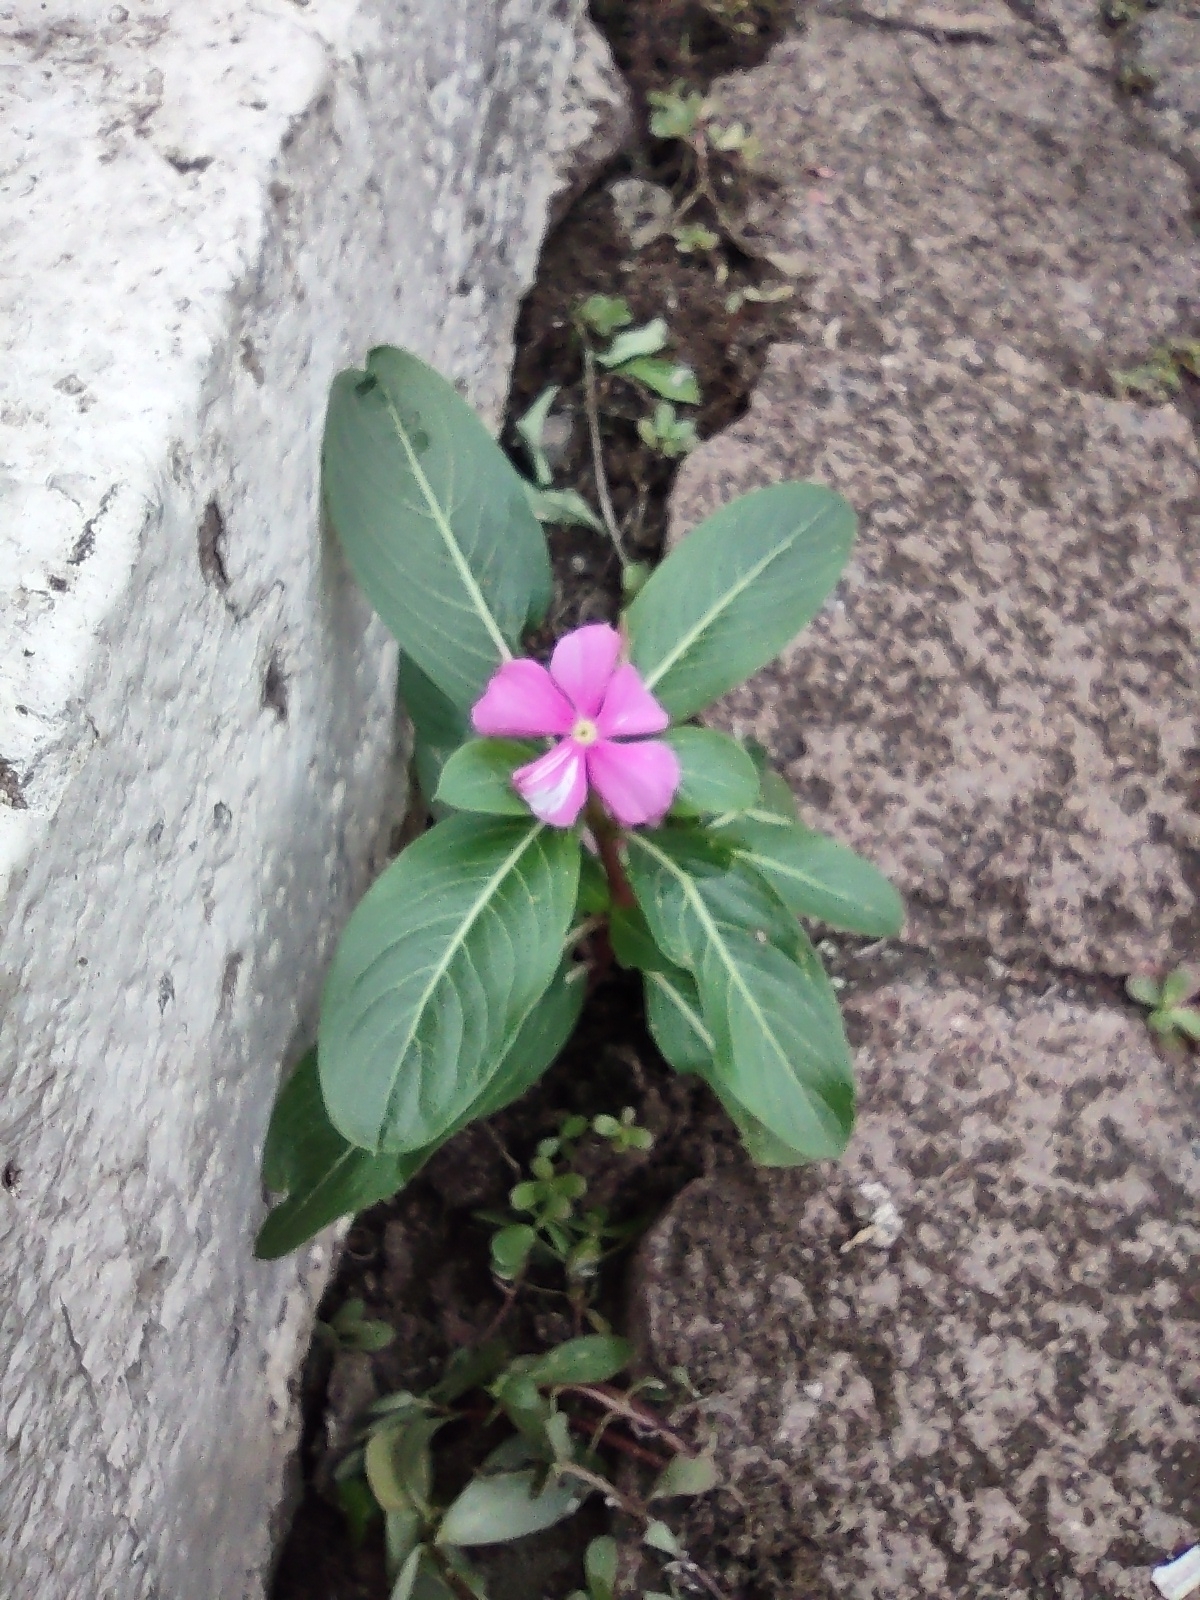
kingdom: Plantae
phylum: Tracheophyta
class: Magnoliopsida
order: Gentianales
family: Apocynaceae
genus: Catharanthus
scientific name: Catharanthus roseus
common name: Madagascar periwinkle
